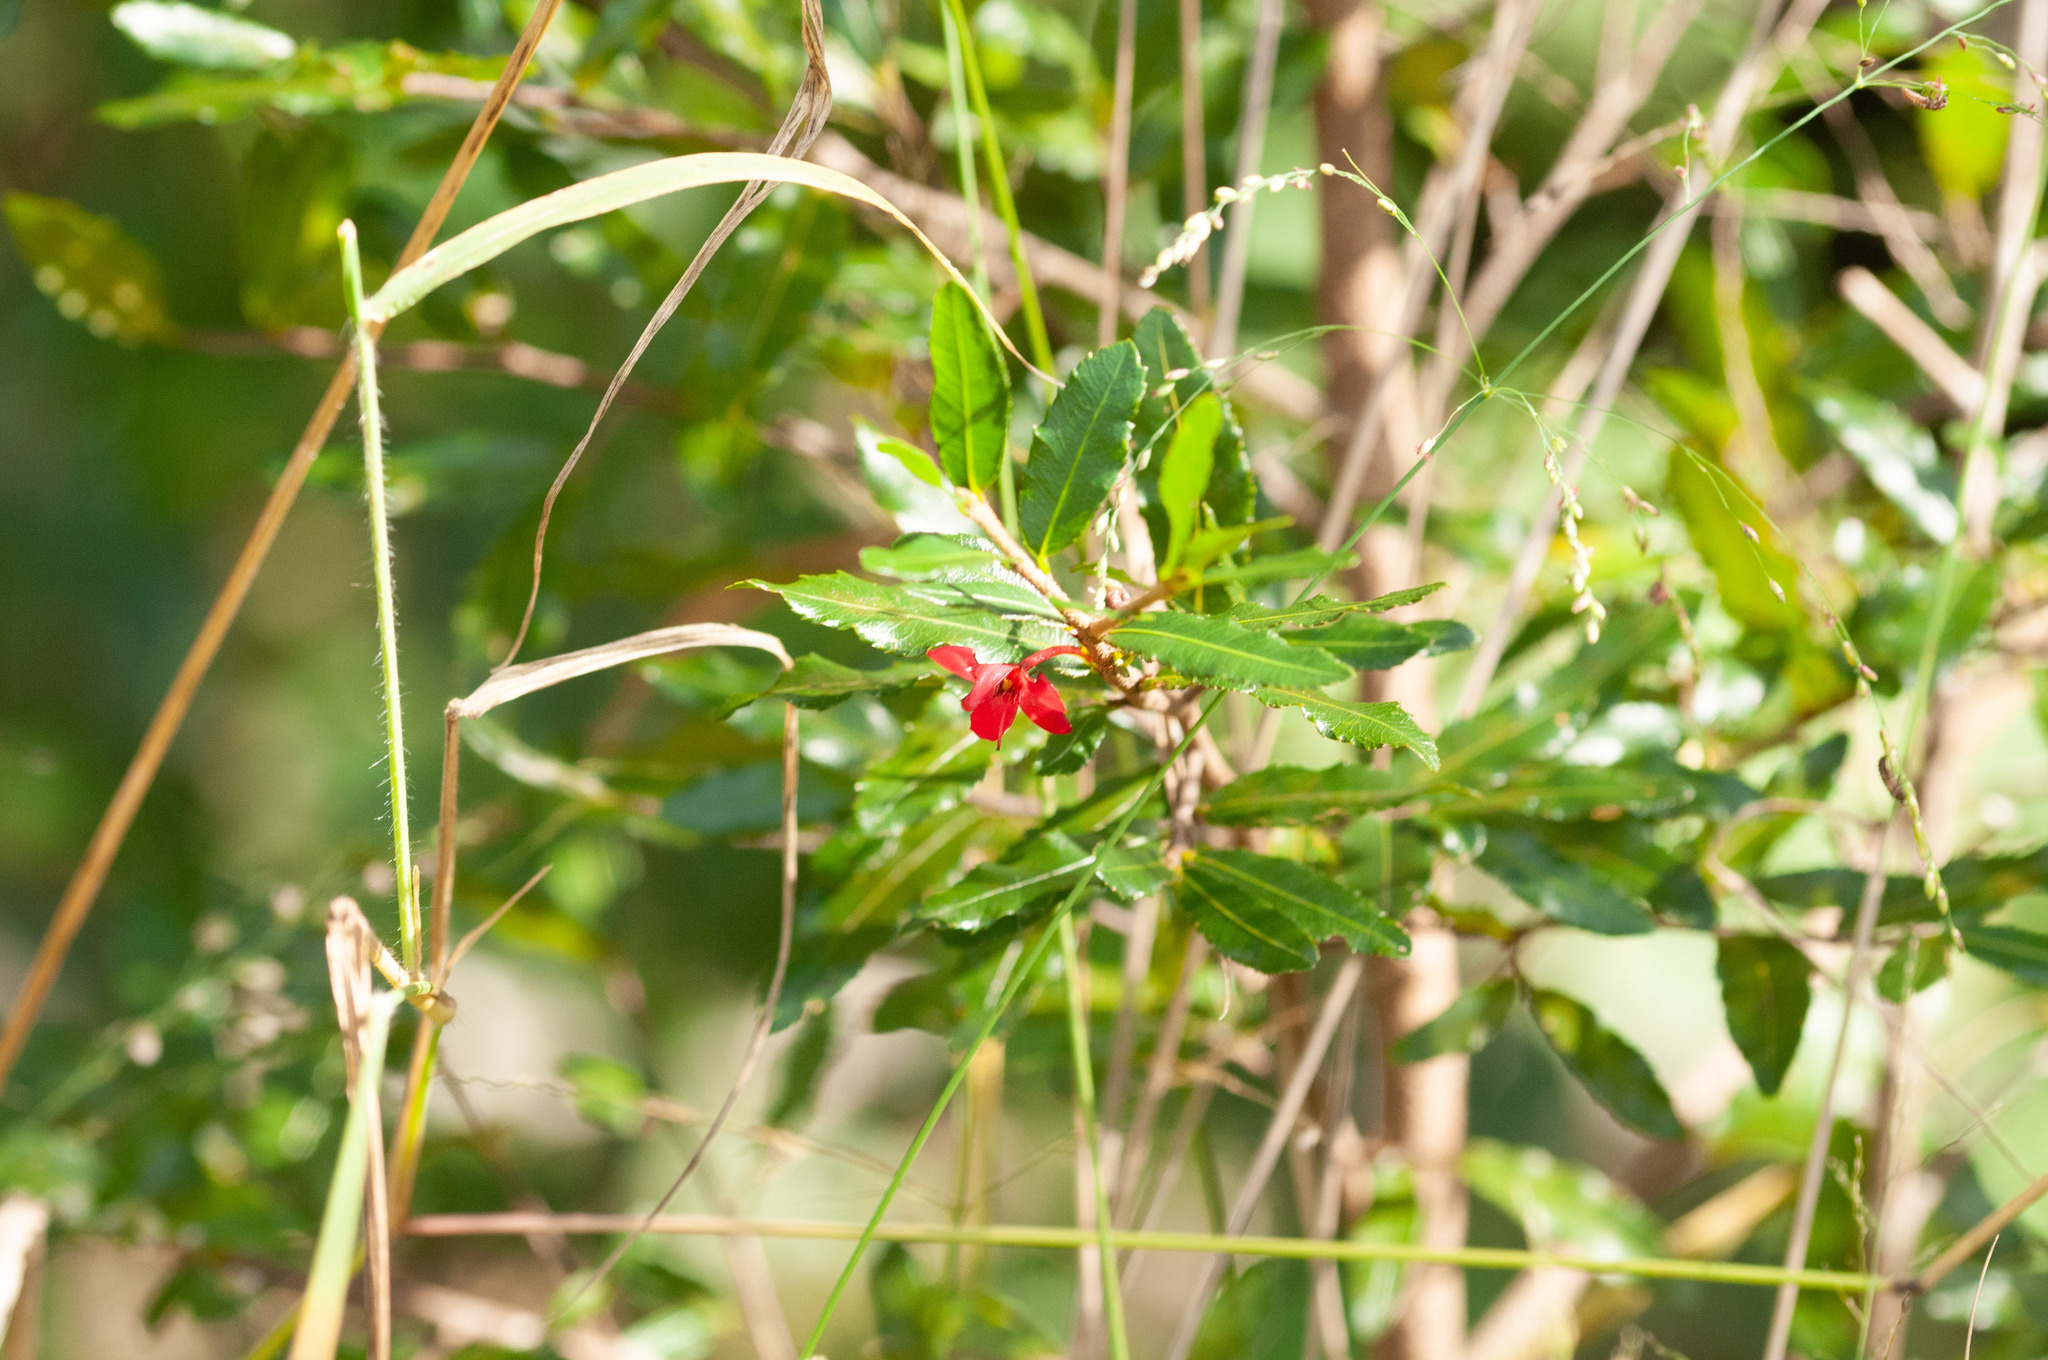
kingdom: Plantae
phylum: Tracheophyta
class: Magnoliopsida
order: Malpighiales
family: Ochnaceae
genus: Ochna
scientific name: Ochna serrulata
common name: Mickey mouse plant
